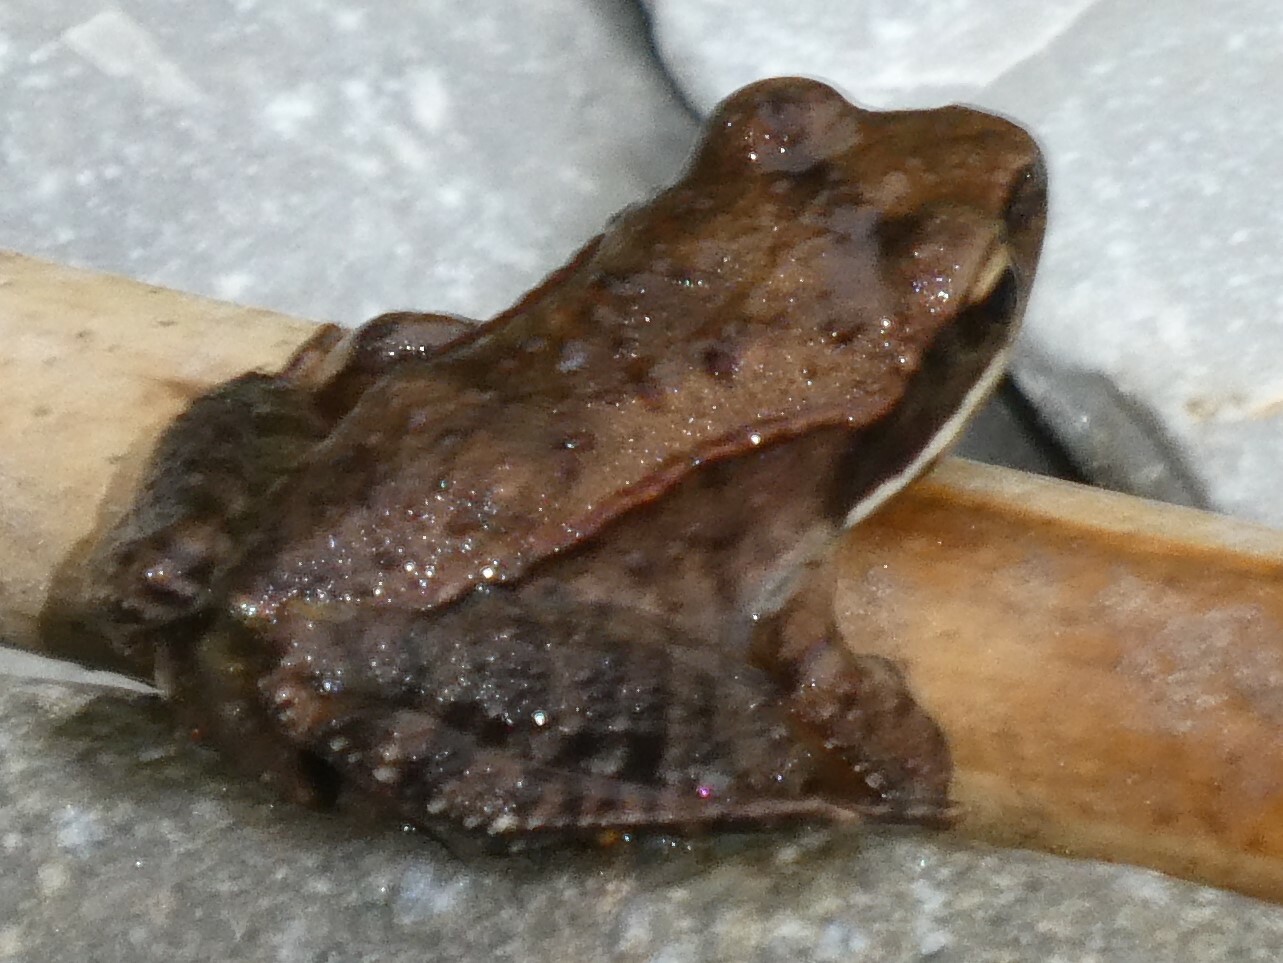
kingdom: Animalia
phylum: Chordata
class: Amphibia
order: Anura
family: Ranidae
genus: Lithobates
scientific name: Lithobates sylvaticus
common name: Wood frog
